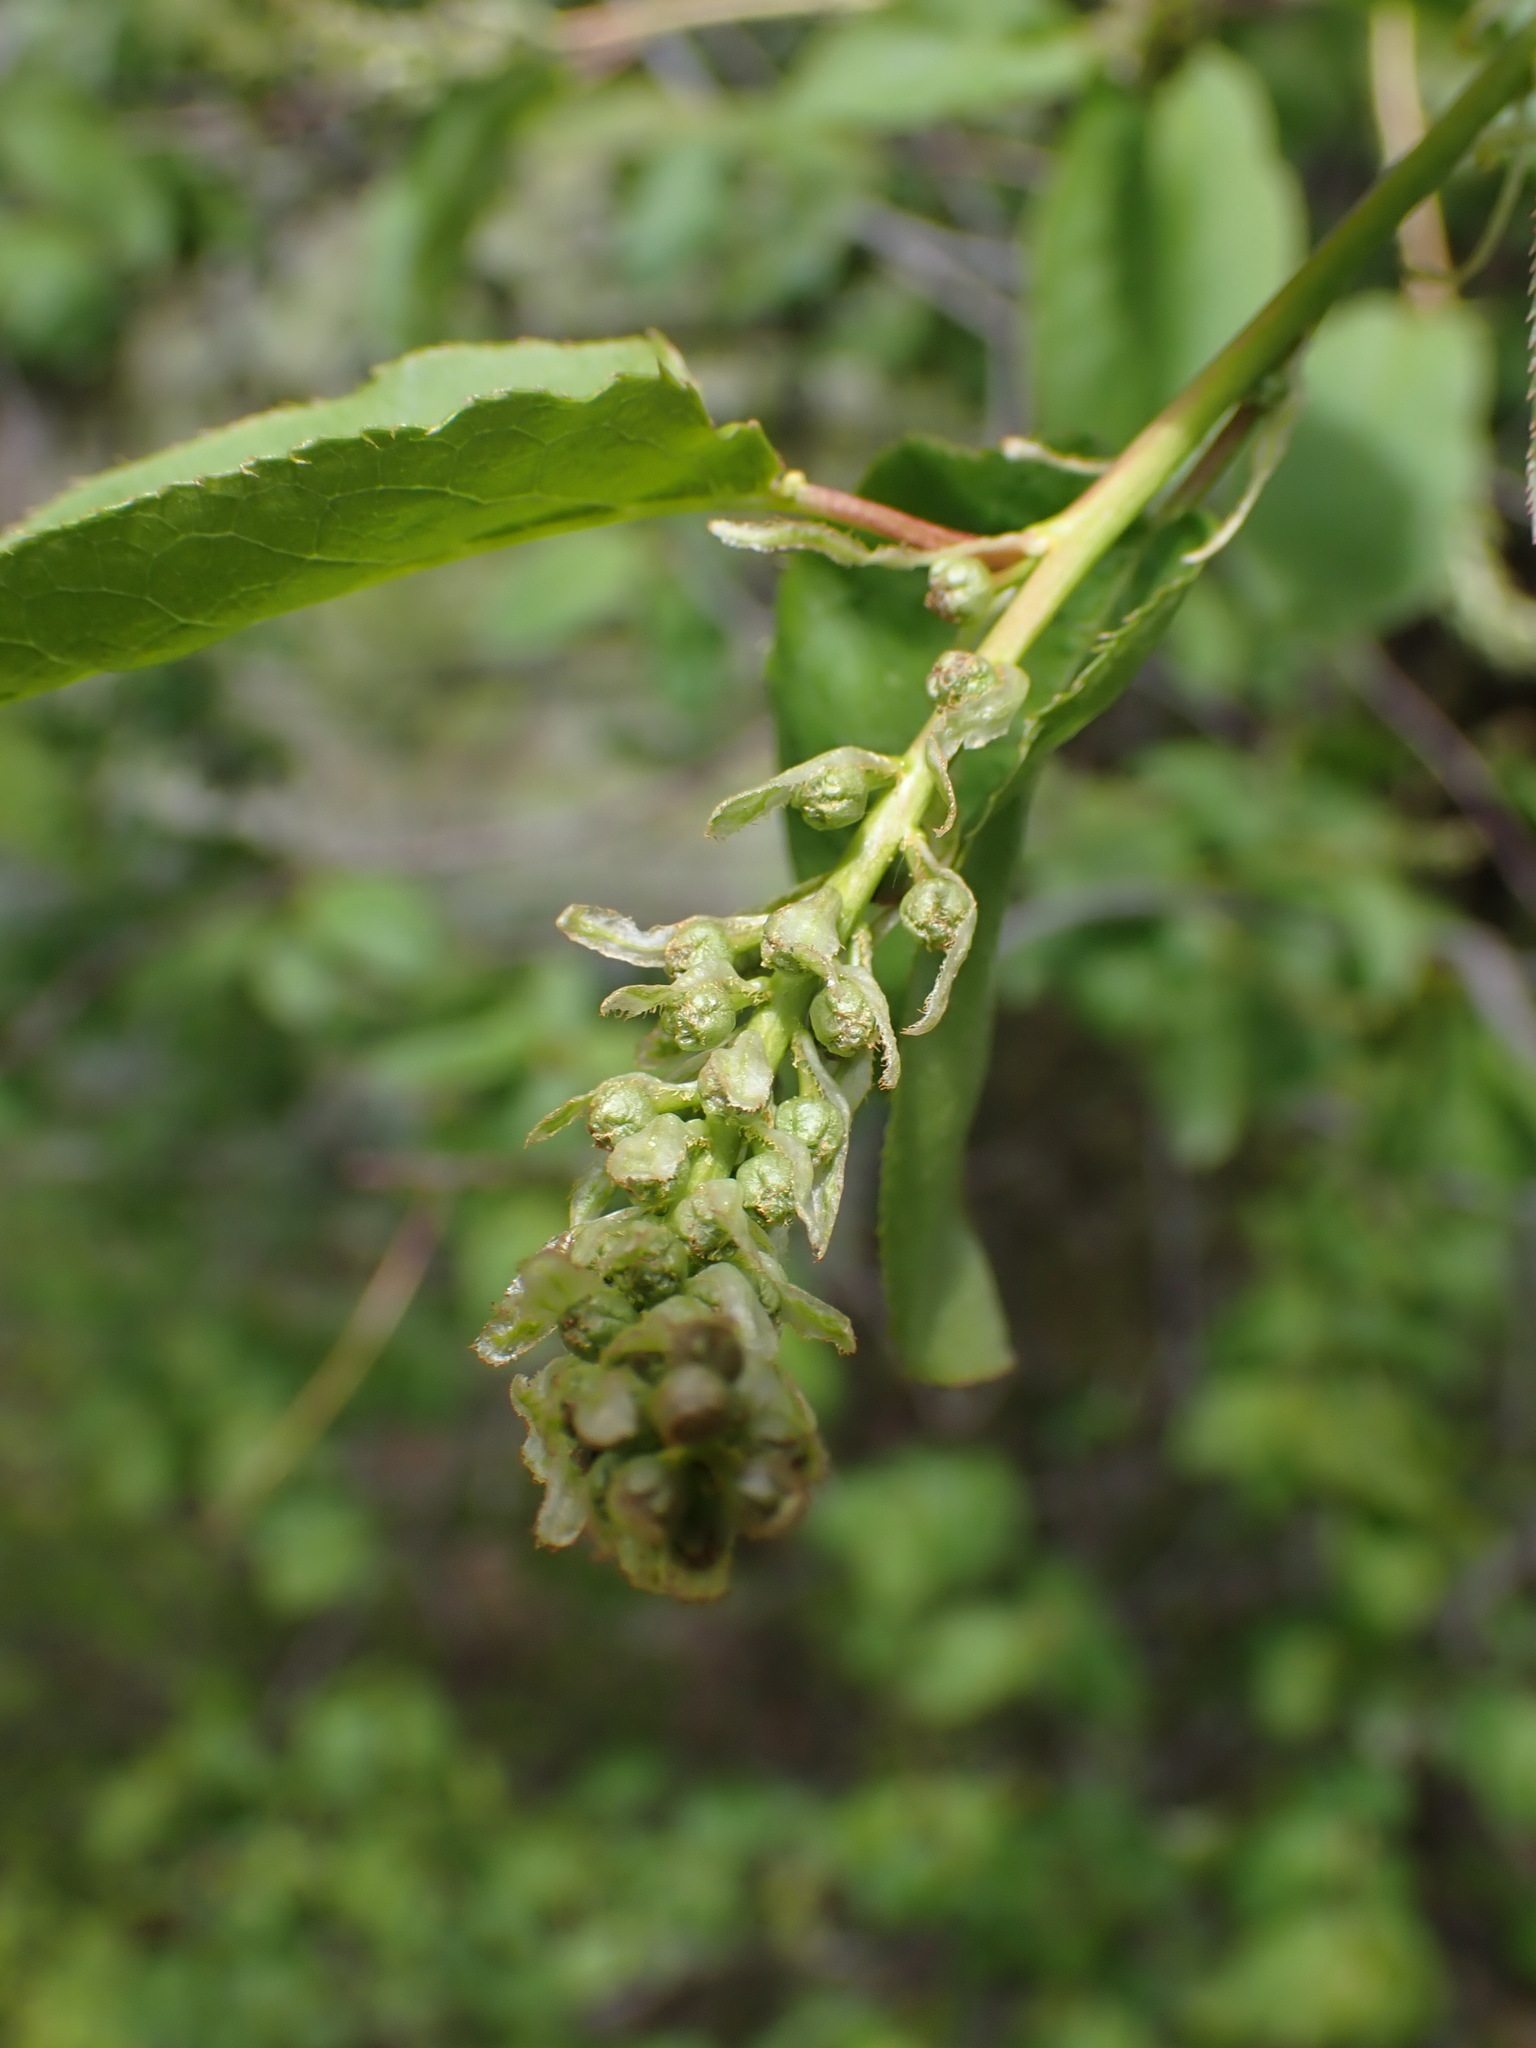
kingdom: Plantae
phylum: Tracheophyta
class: Magnoliopsida
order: Rosales
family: Rosaceae
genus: Prunus
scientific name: Prunus virginiana
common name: Chokecherry
